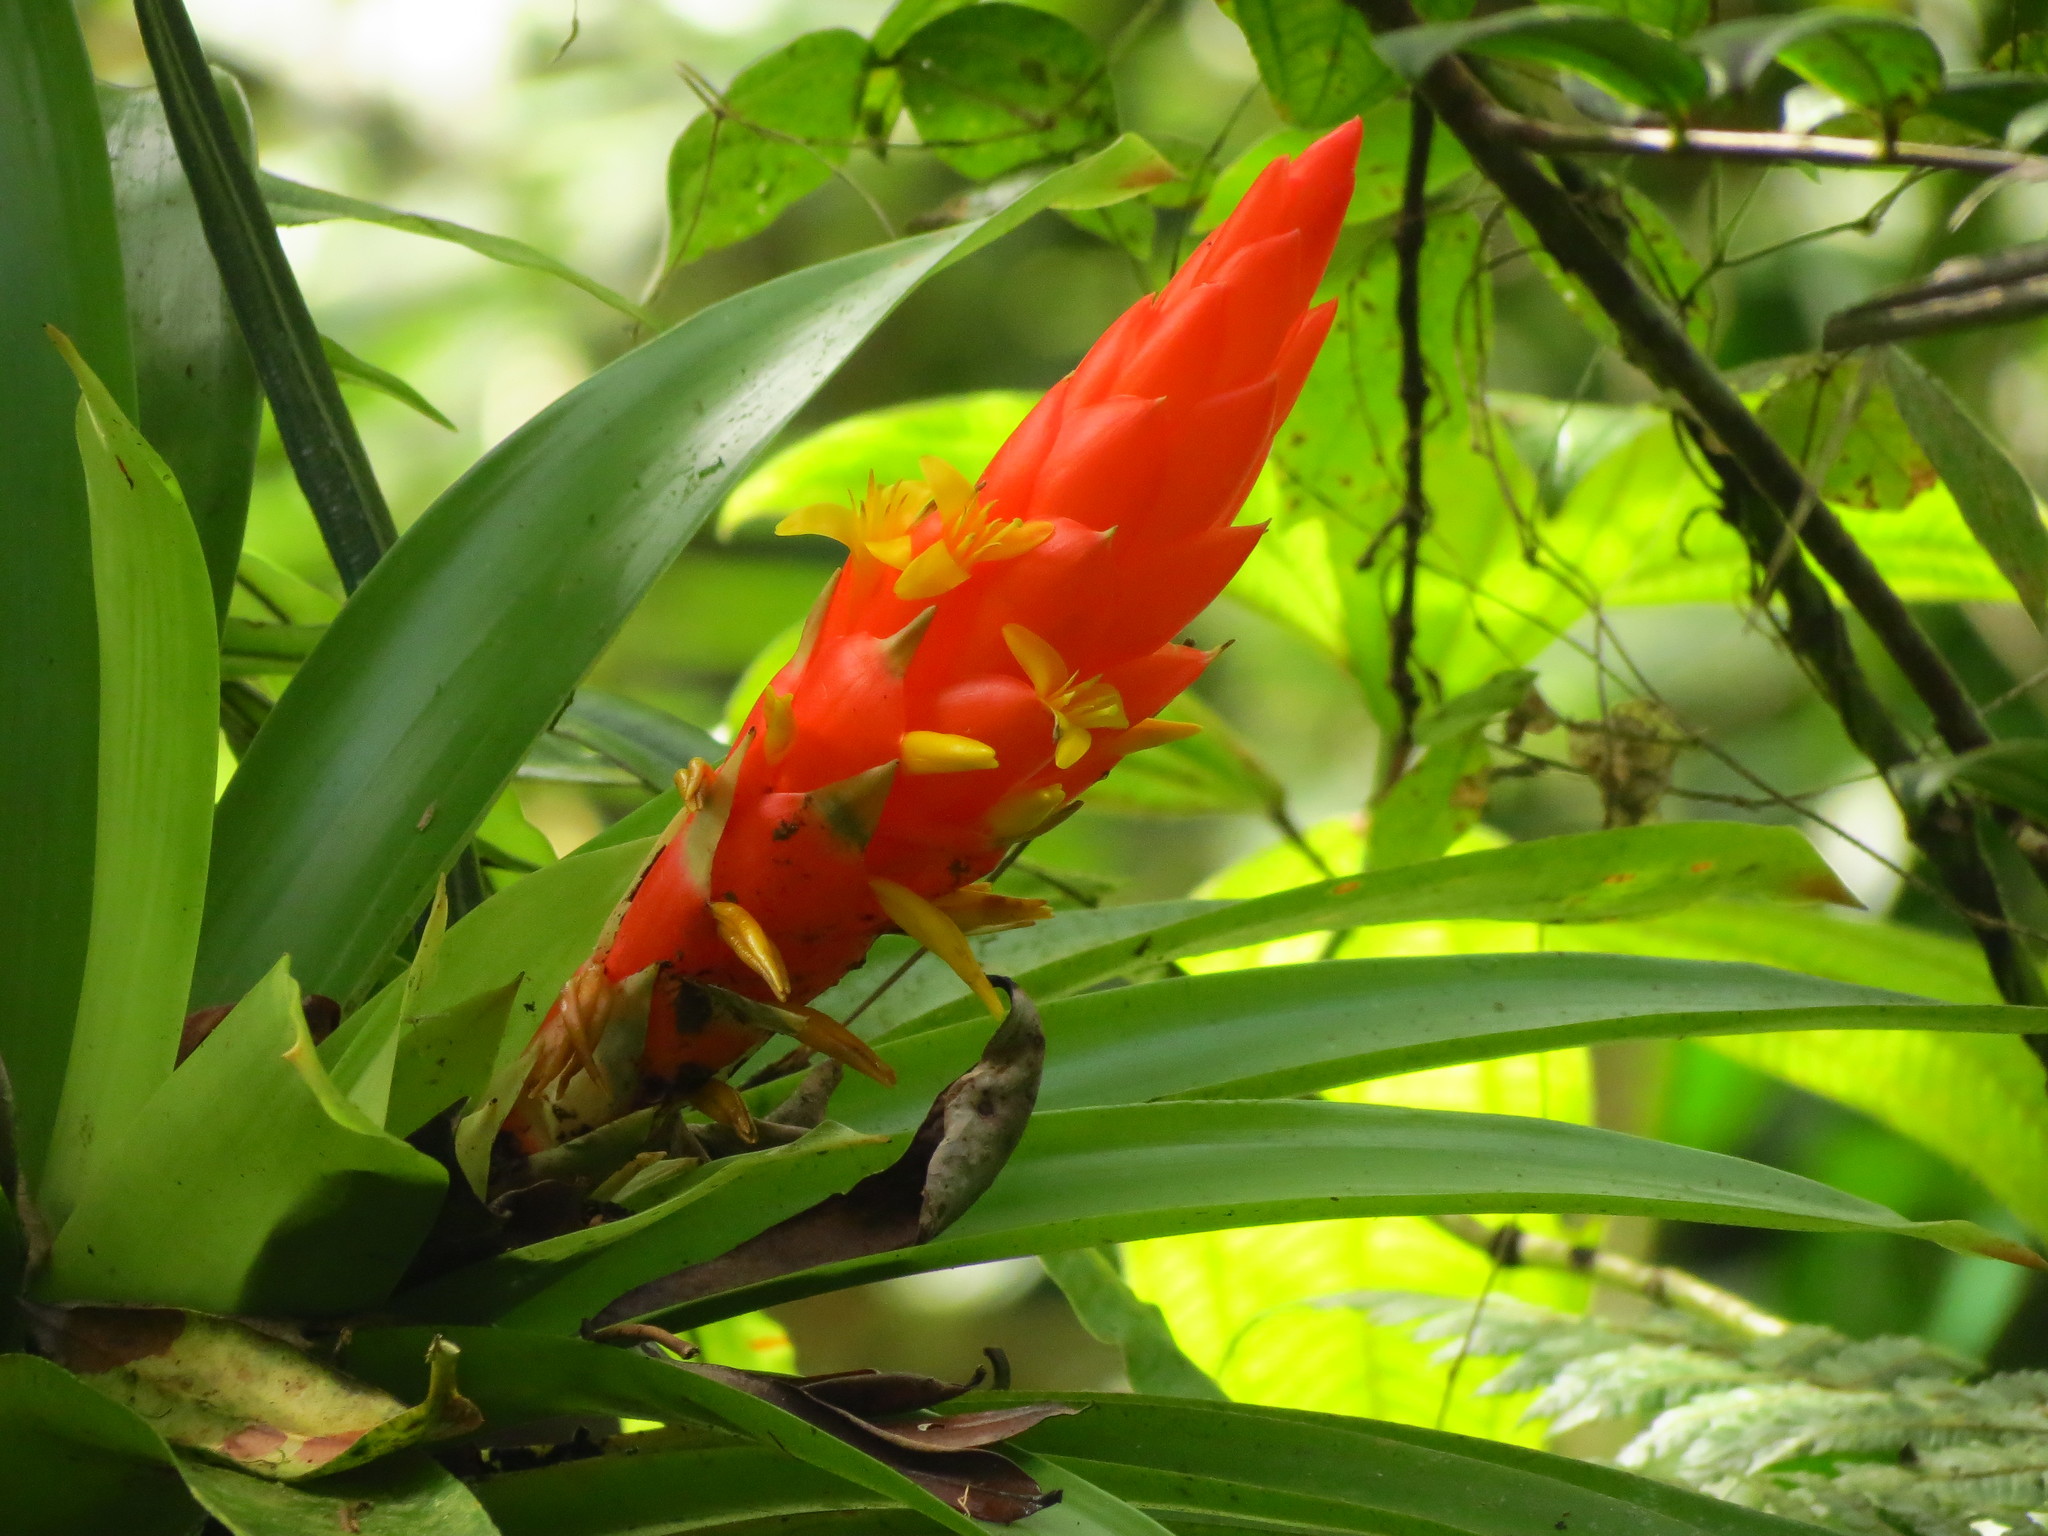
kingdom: Plantae
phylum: Tracheophyta
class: Liliopsida
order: Poales
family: Bromeliaceae
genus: Guzmania
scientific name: Guzmania berteroniana
